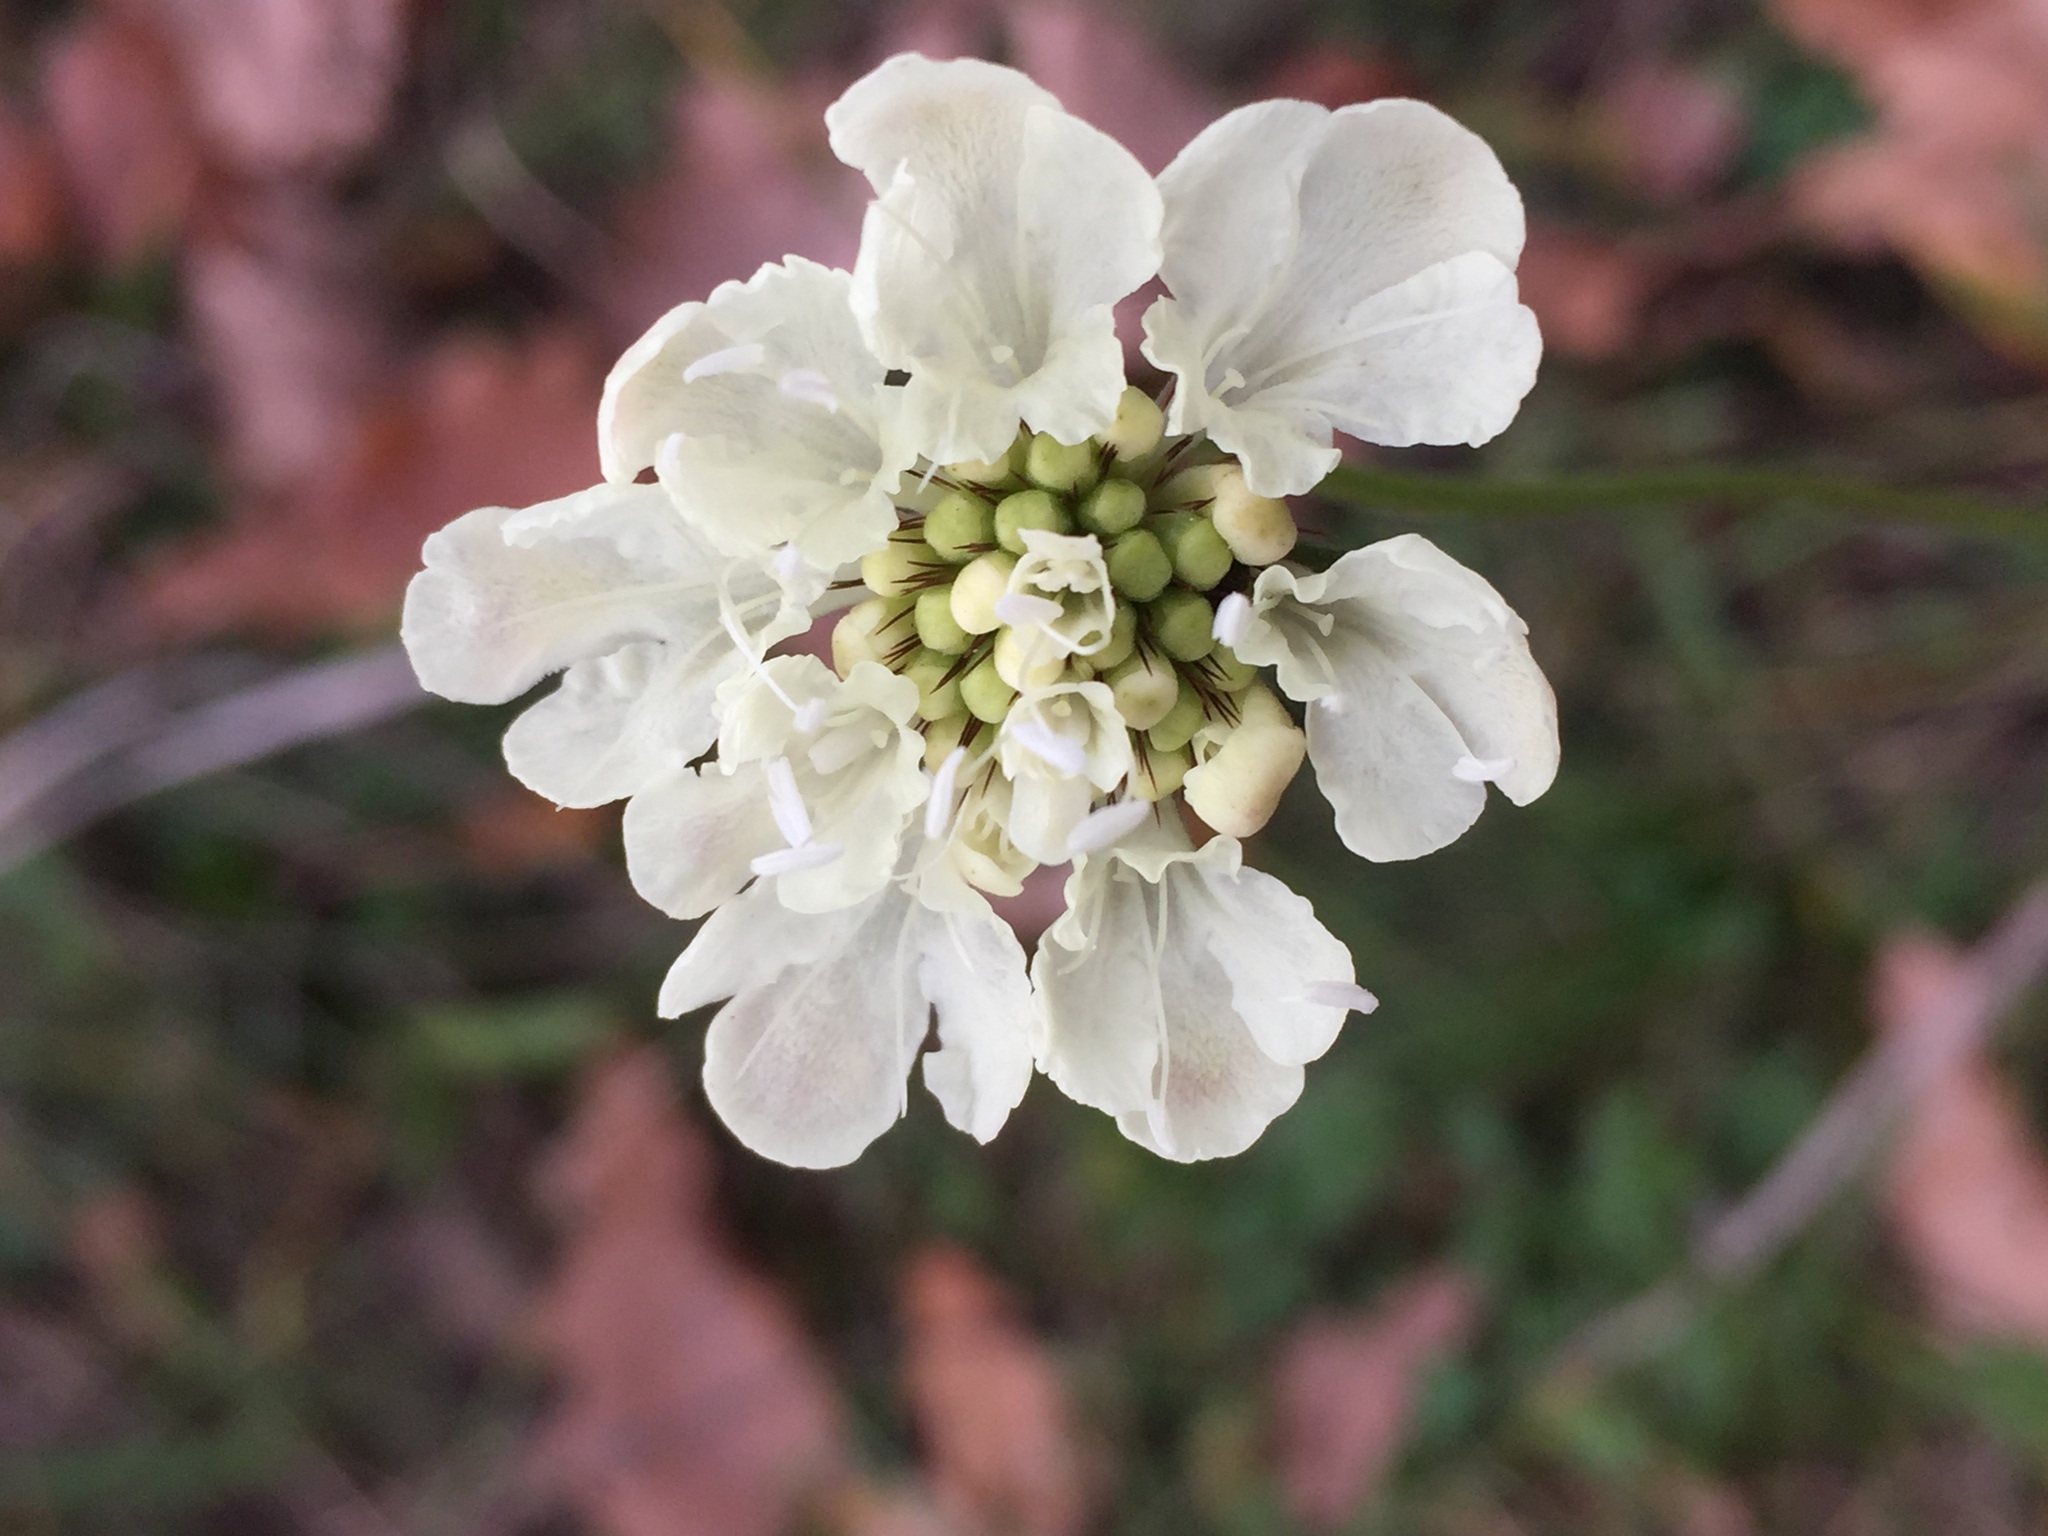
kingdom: Plantae
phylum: Tracheophyta
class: Magnoliopsida
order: Dipsacales
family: Caprifoliaceae
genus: Scabiosa
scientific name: Scabiosa ochroleuca
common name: Cream pincushions
